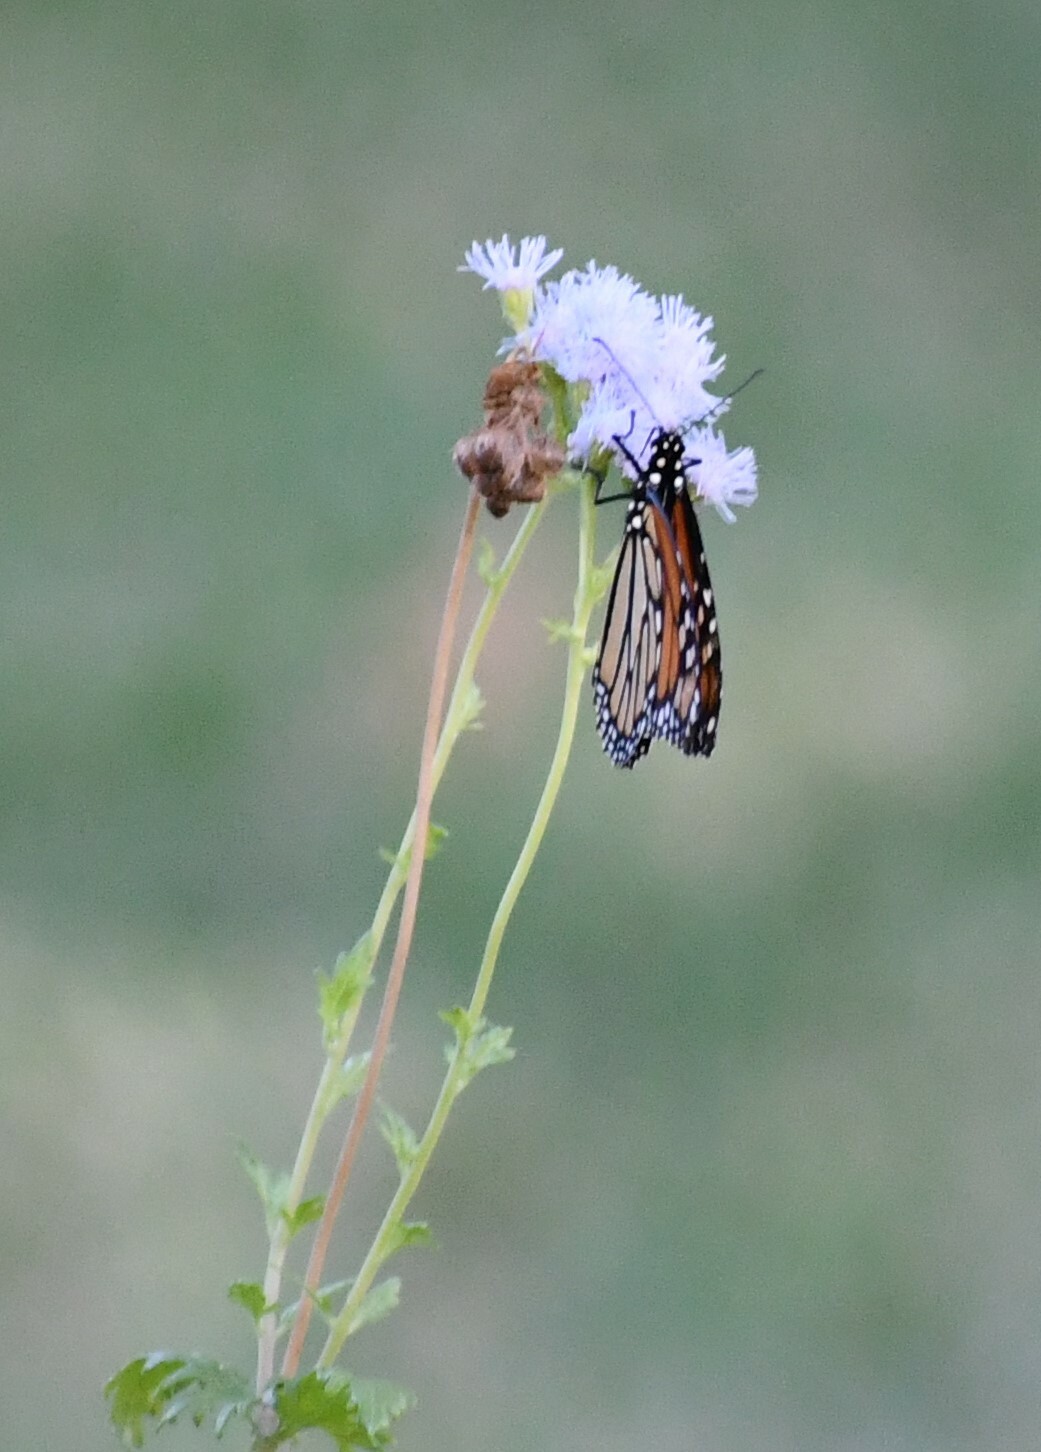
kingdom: Animalia
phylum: Arthropoda
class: Insecta
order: Lepidoptera
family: Nymphalidae
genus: Danaus
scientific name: Danaus plexippus
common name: Monarch
